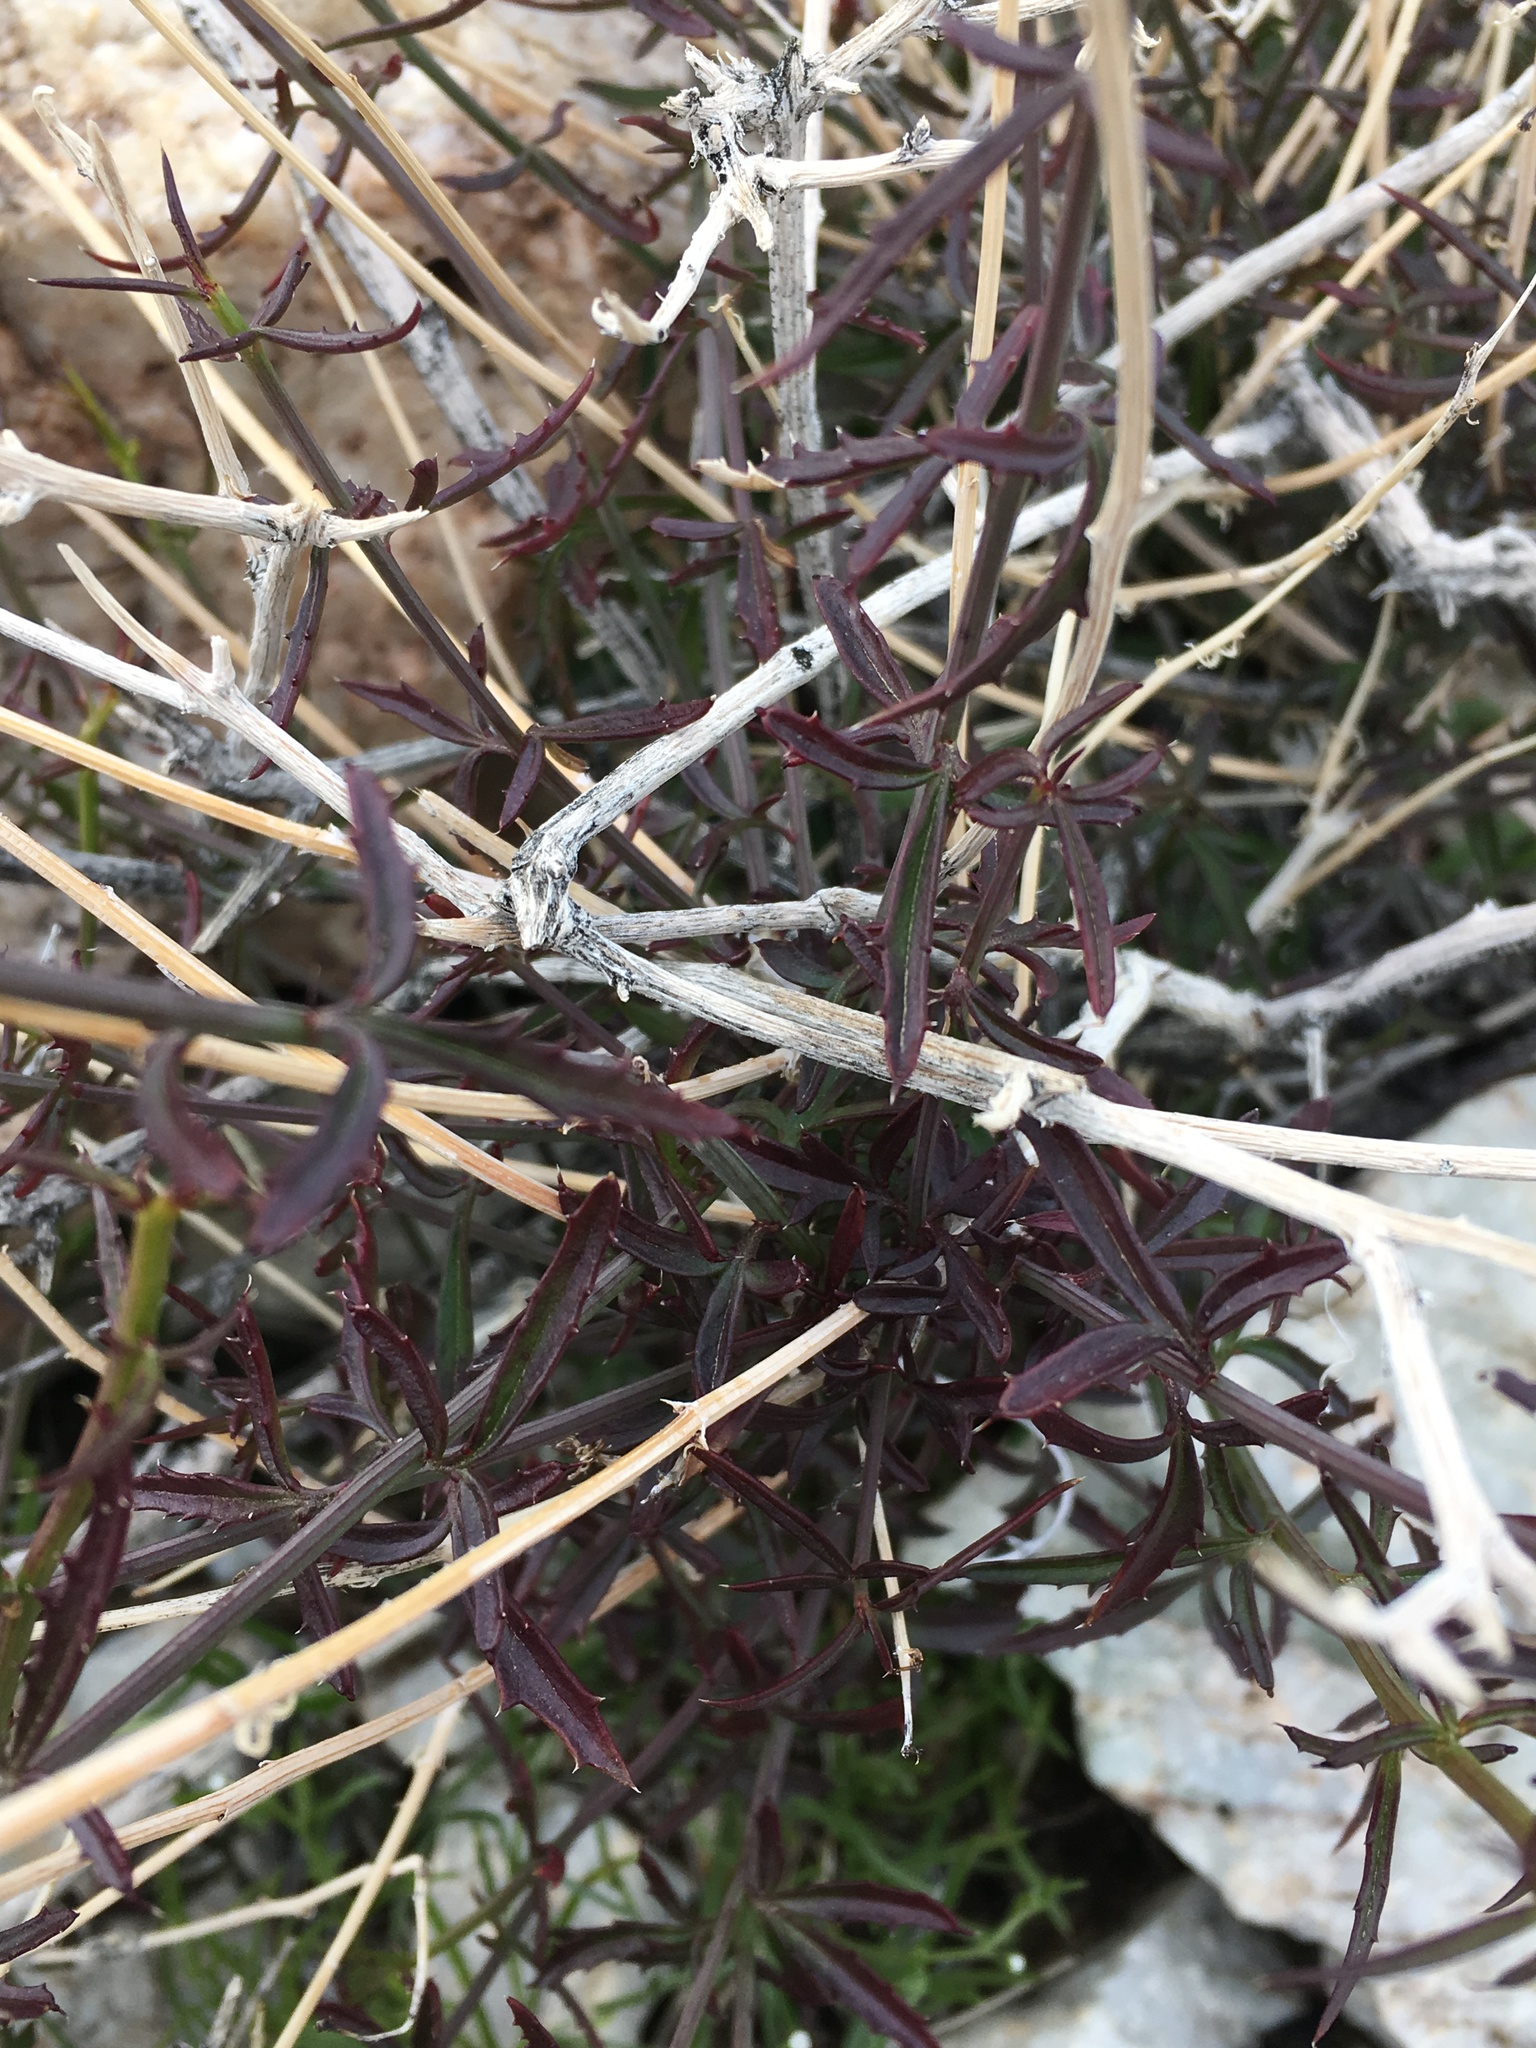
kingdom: Plantae
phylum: Tracheophyta
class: Magnoliopsida
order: Asterales
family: Asteraceae
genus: Adenophyllum
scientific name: Adenophyllum porophylloides
